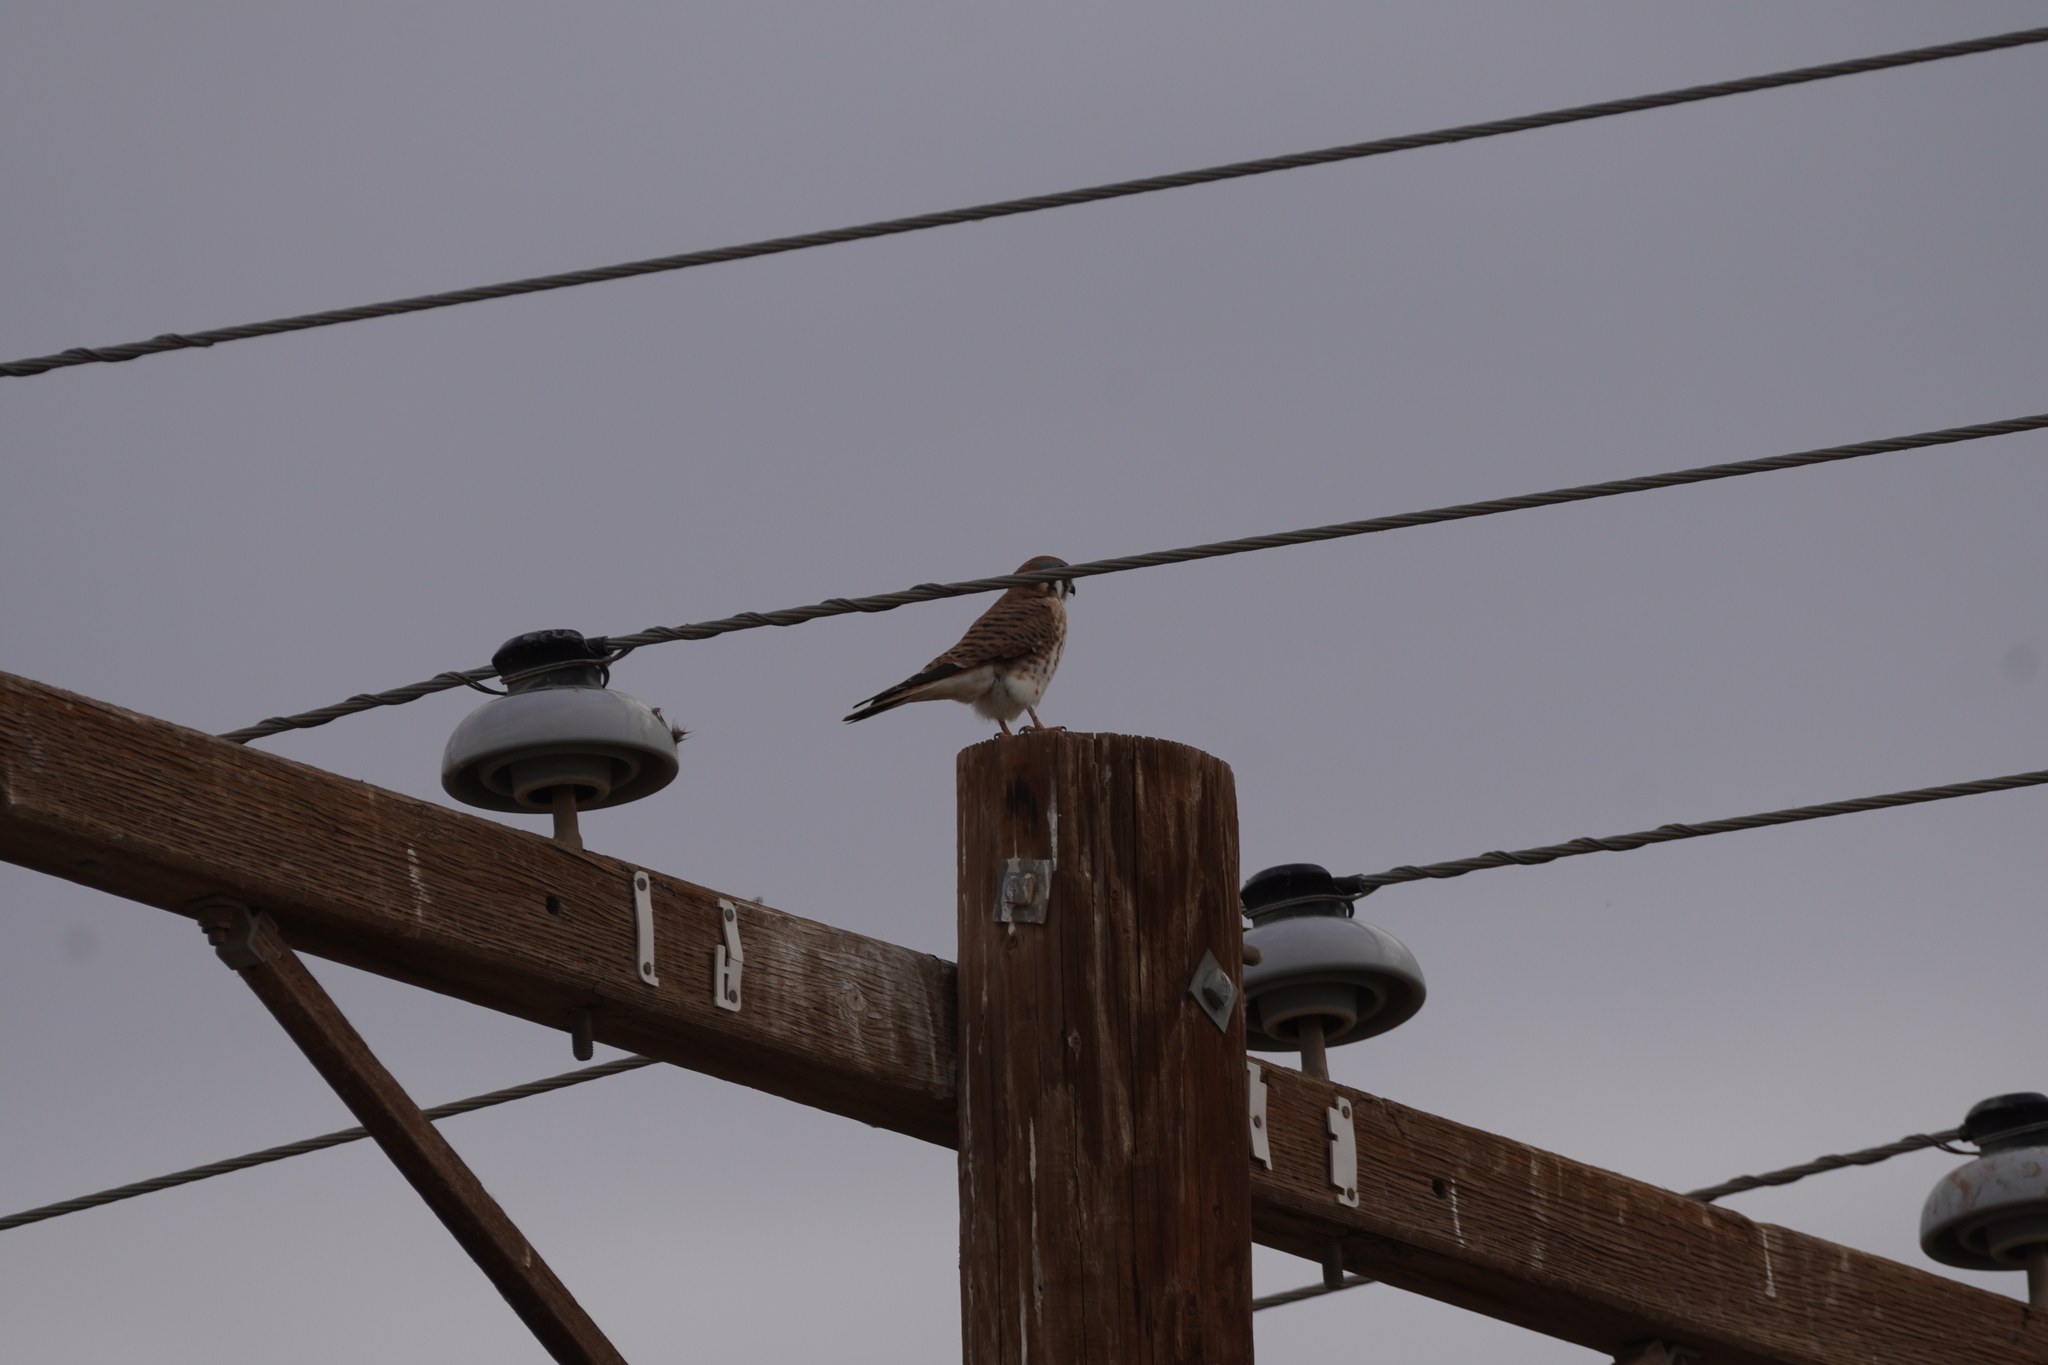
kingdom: Animalia
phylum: Chordata
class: Aves
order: Falconiformes
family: Falconidae
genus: Falco
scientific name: Falco sparverius
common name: American kestrel
